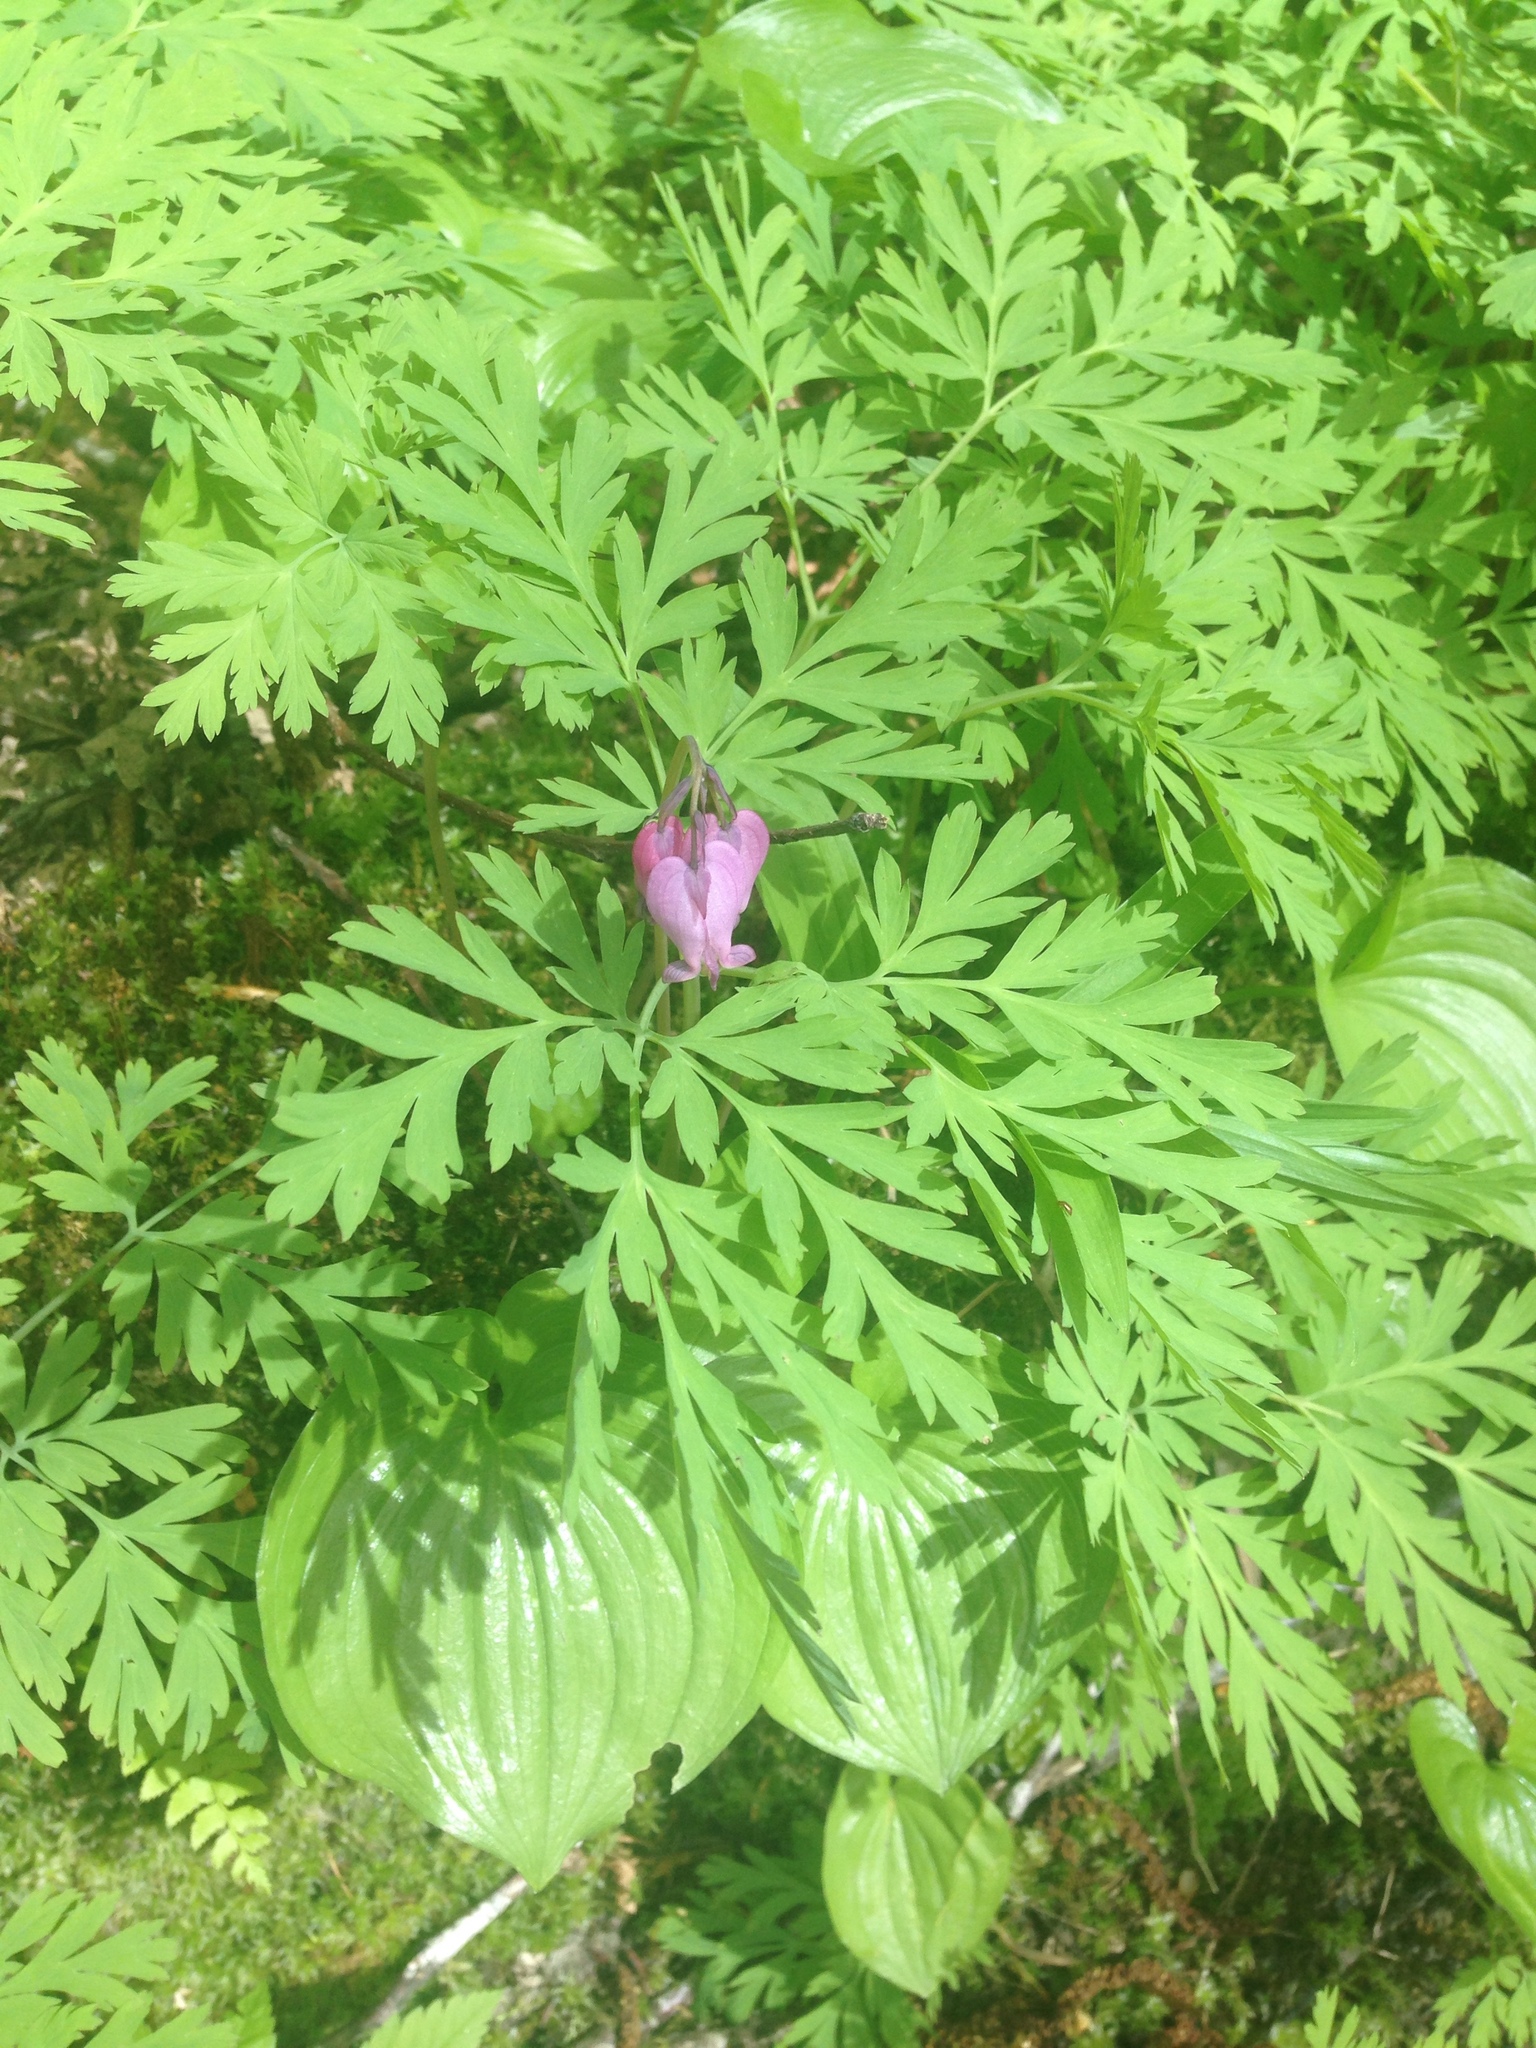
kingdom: Plantae
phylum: Tracheophyta
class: Magnoliopsida
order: Ranunculales
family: Papaveraceae
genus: Dicentra
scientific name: Dicentra formosa
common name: Bleeding-heart
